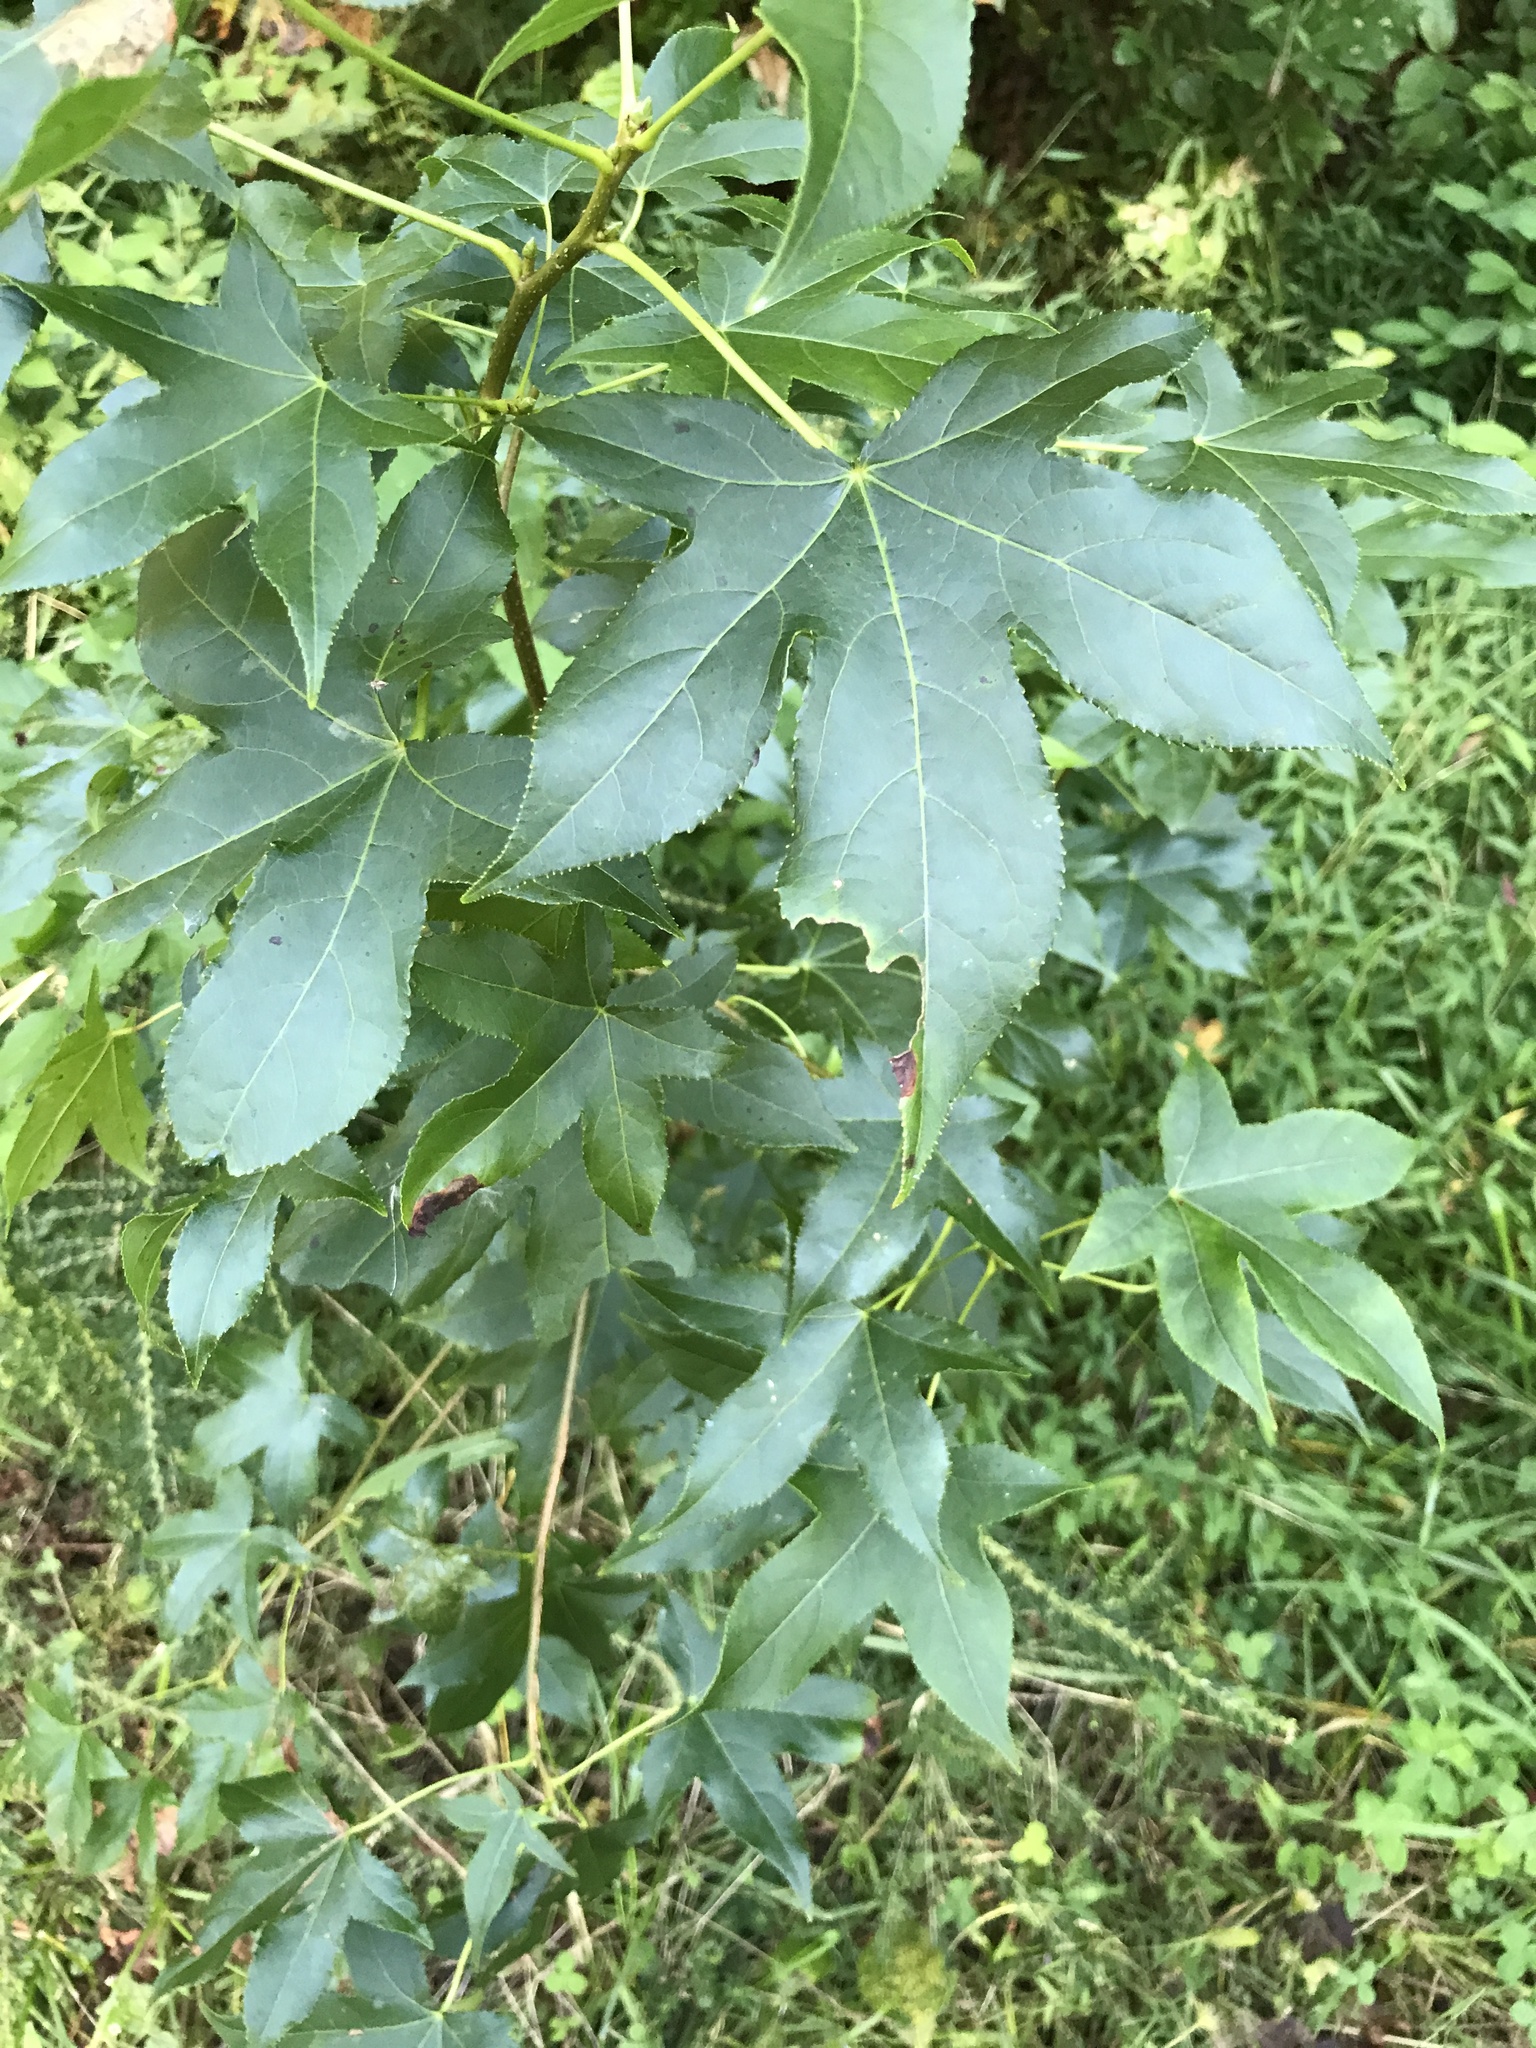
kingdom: Plantae
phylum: Tracheophyta
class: Magnoliopsida
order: Saxifragales
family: Altingiaceae
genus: Liquidambar
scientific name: Liquidambar styraciflua
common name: Sweet gum
